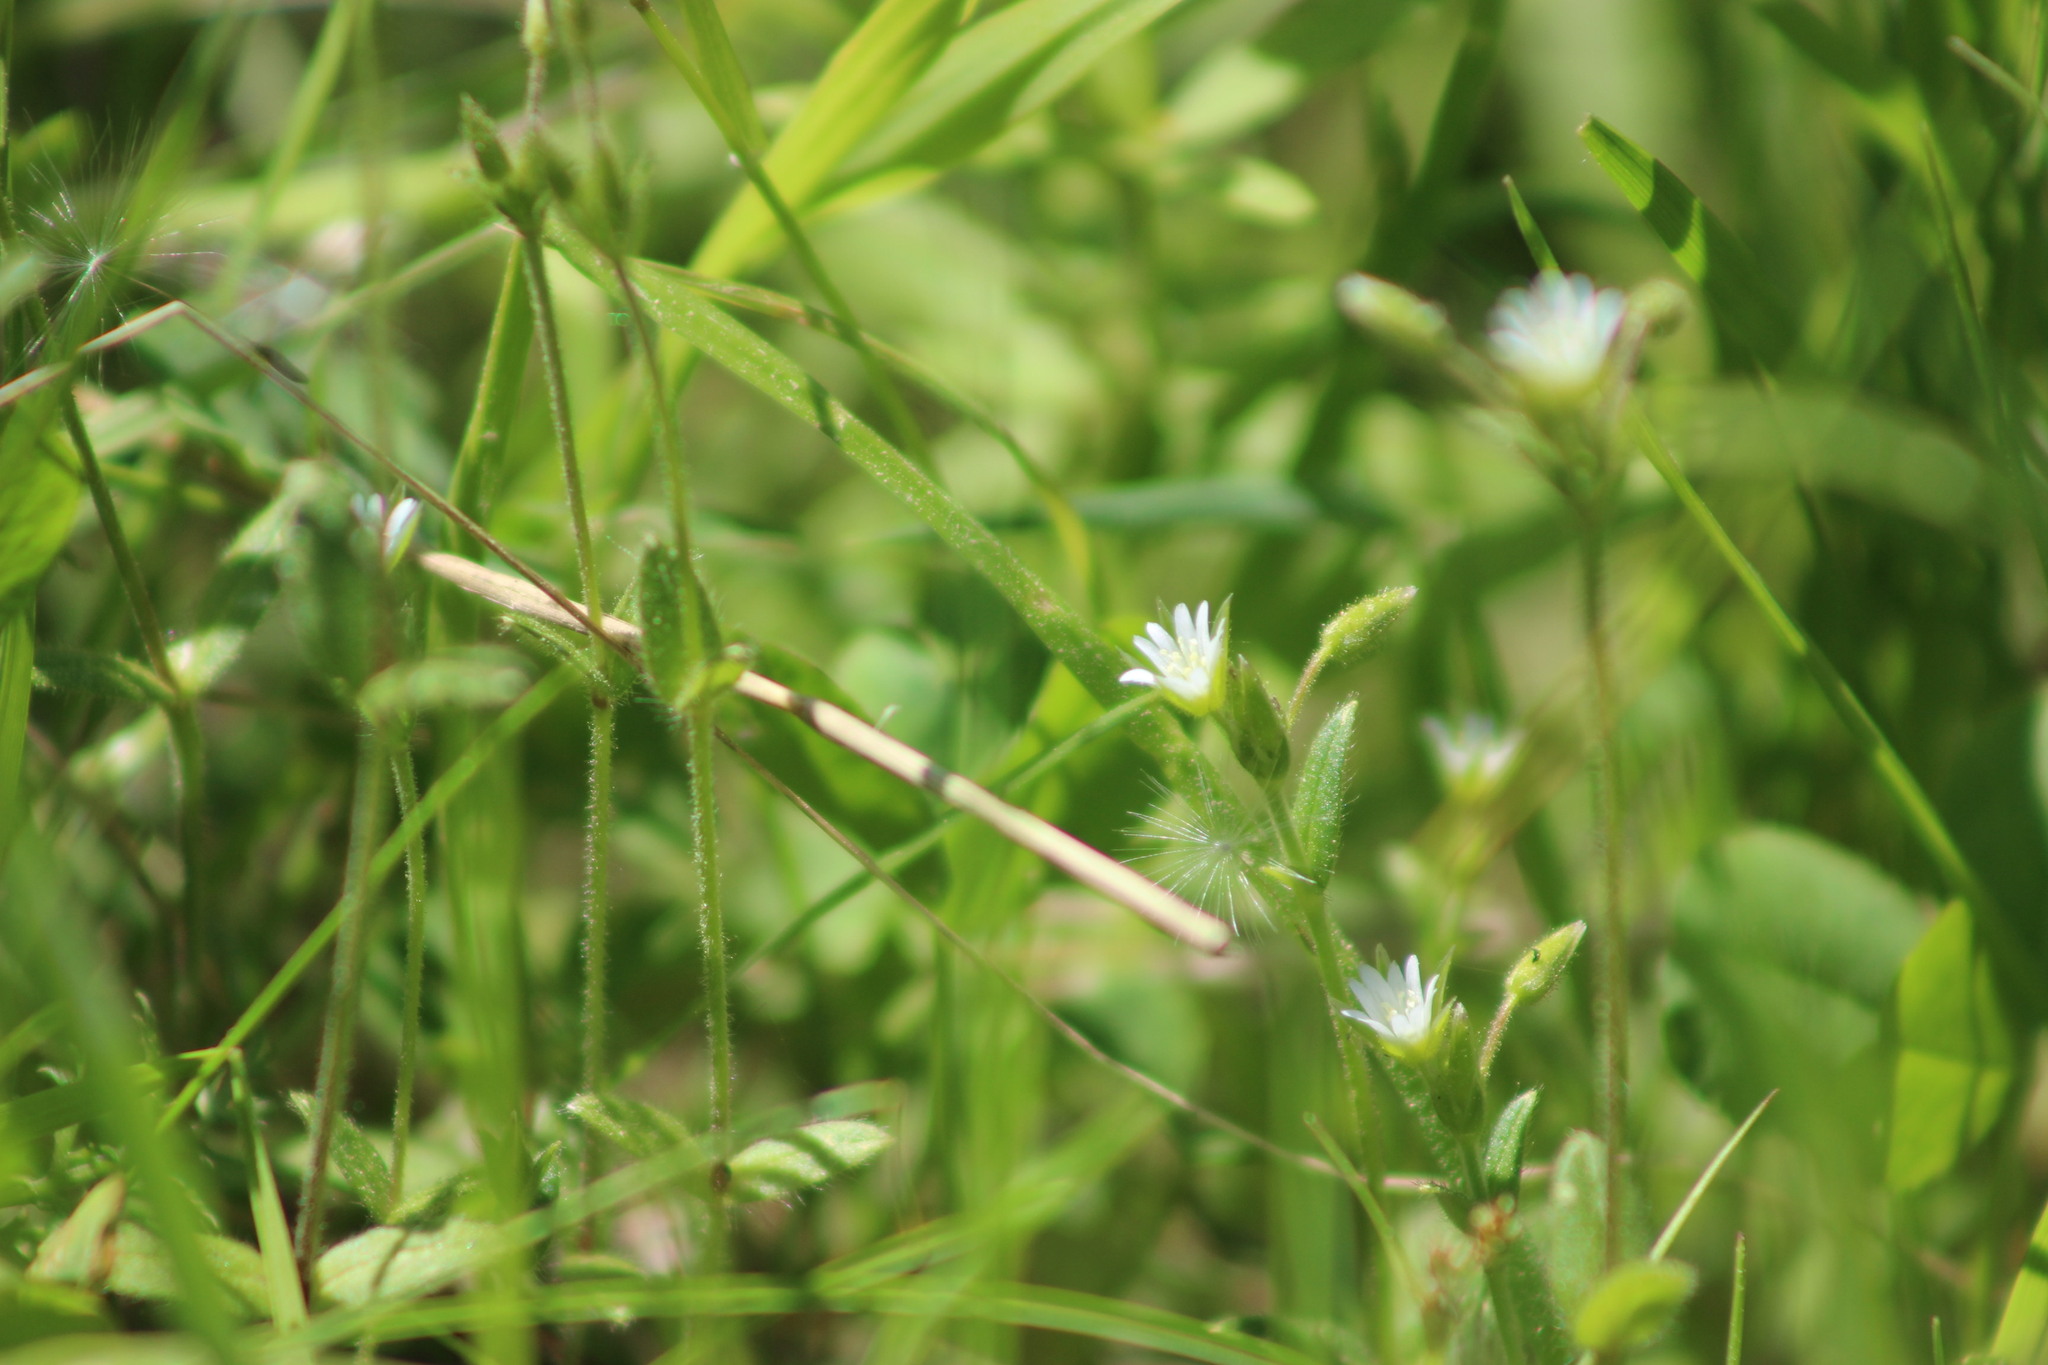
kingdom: Plantae
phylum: Tracheophyta
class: Magnoliopsida
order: Caryophyllales
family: Caryophyllaceae
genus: Cerastium
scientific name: Cerastium holosteoides
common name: Big chickweed
